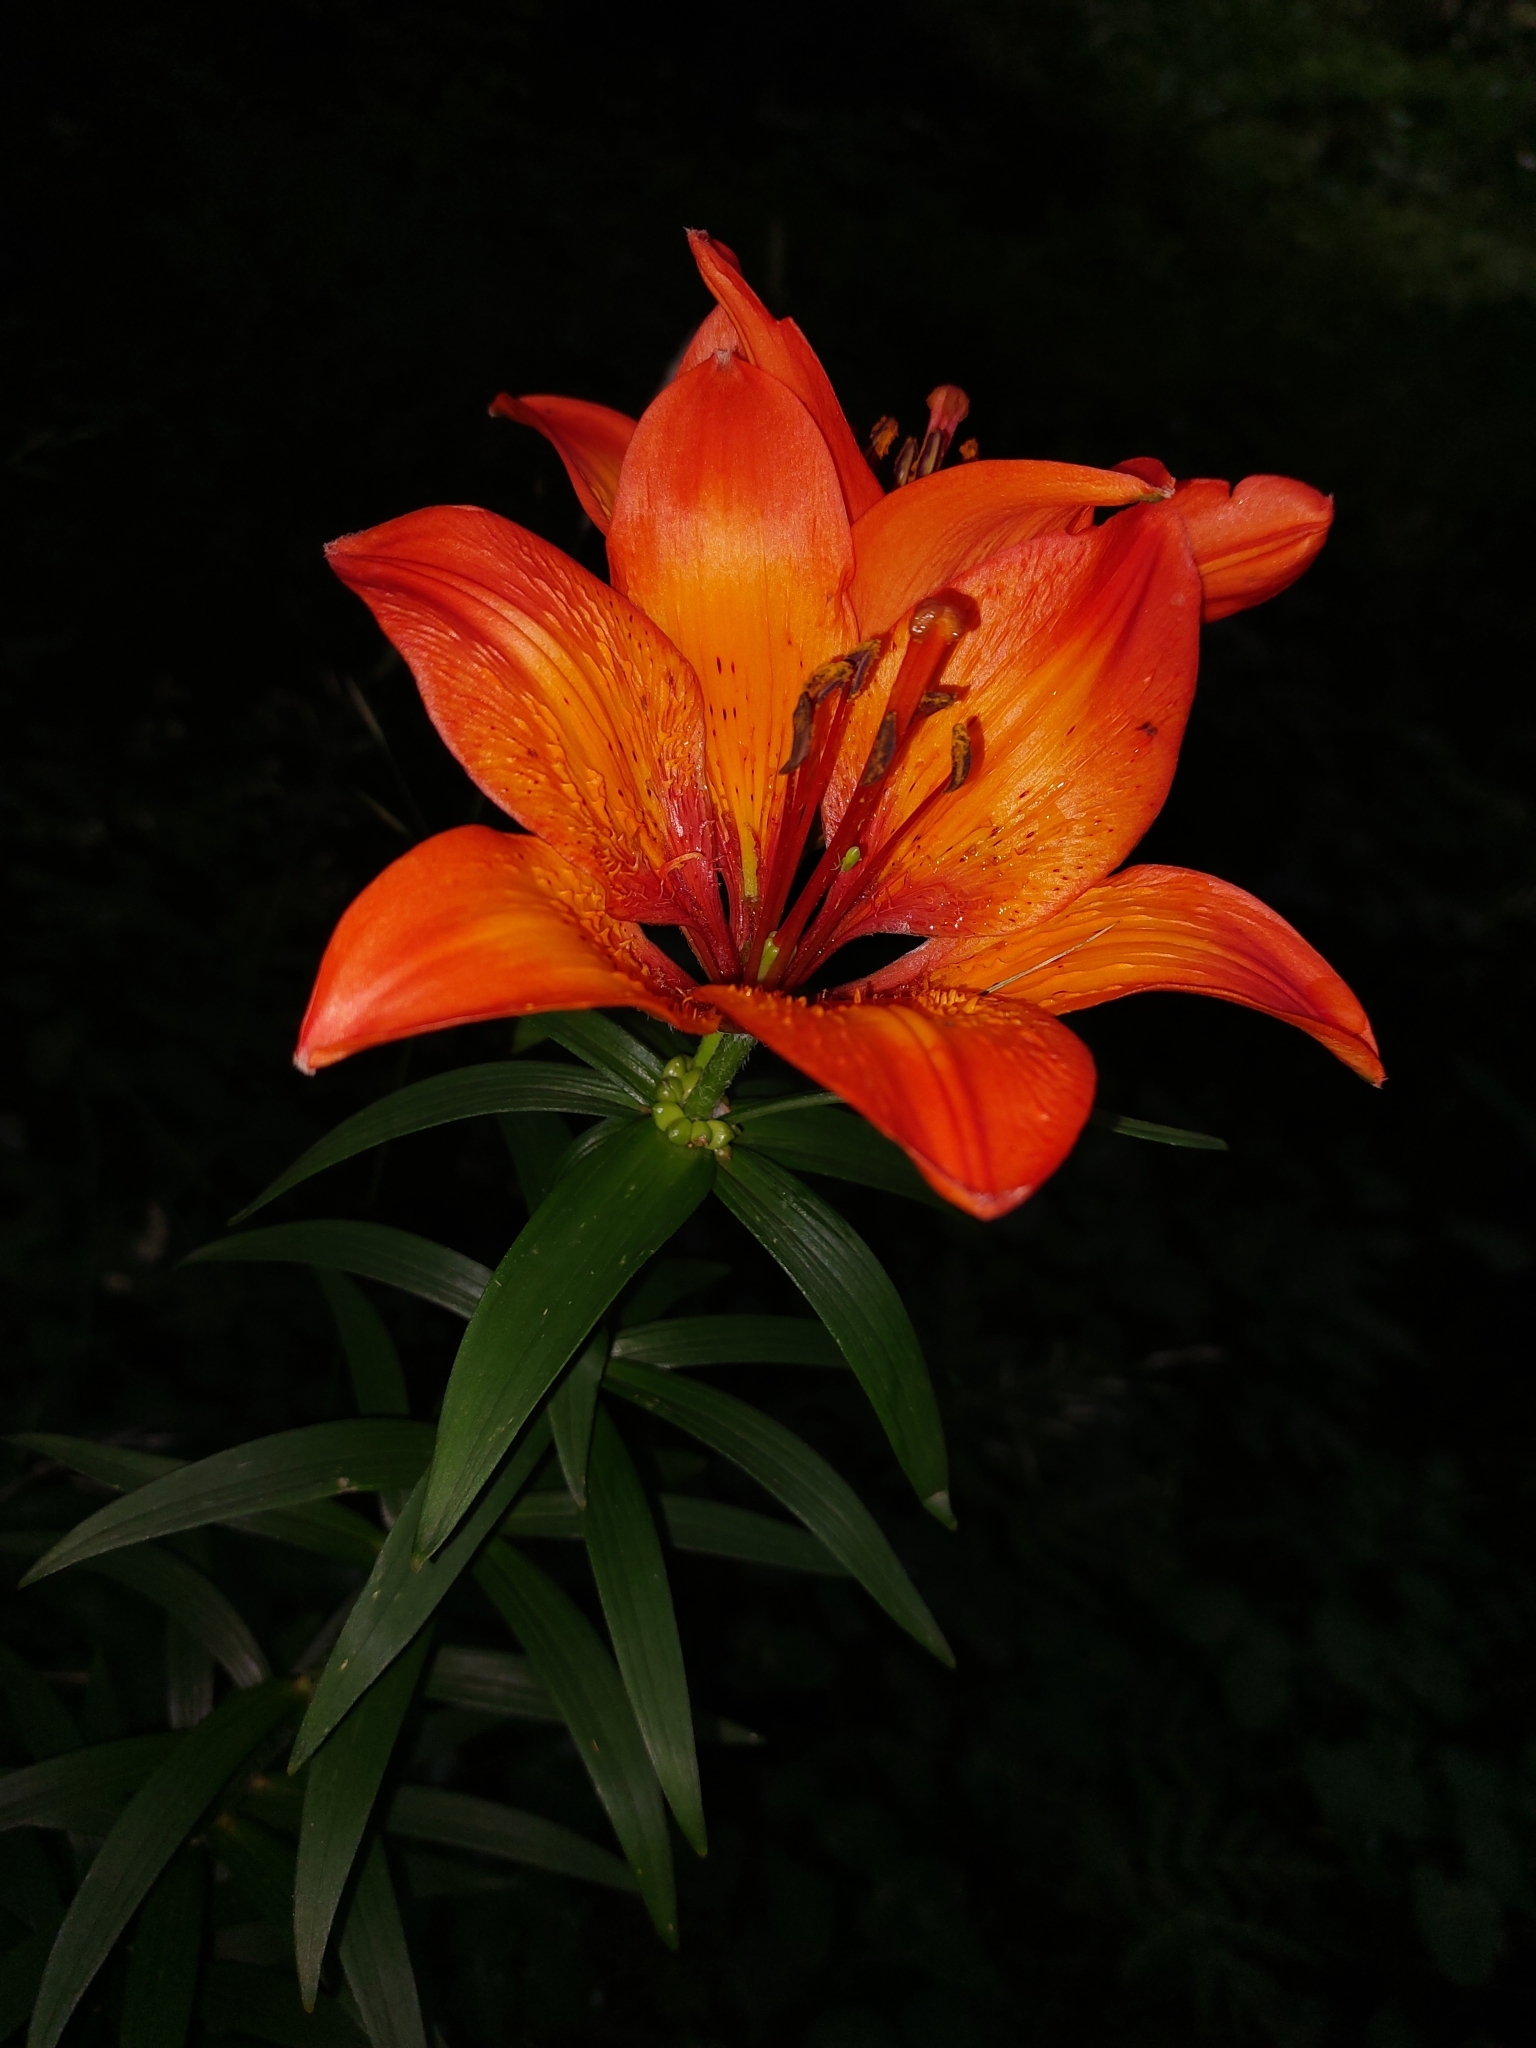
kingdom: Plantae
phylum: Tracheophyta
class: Liliopsida
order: Liliales
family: Liliaceae
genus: Lilium
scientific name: Lilium bulbiferum
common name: Orange lily
